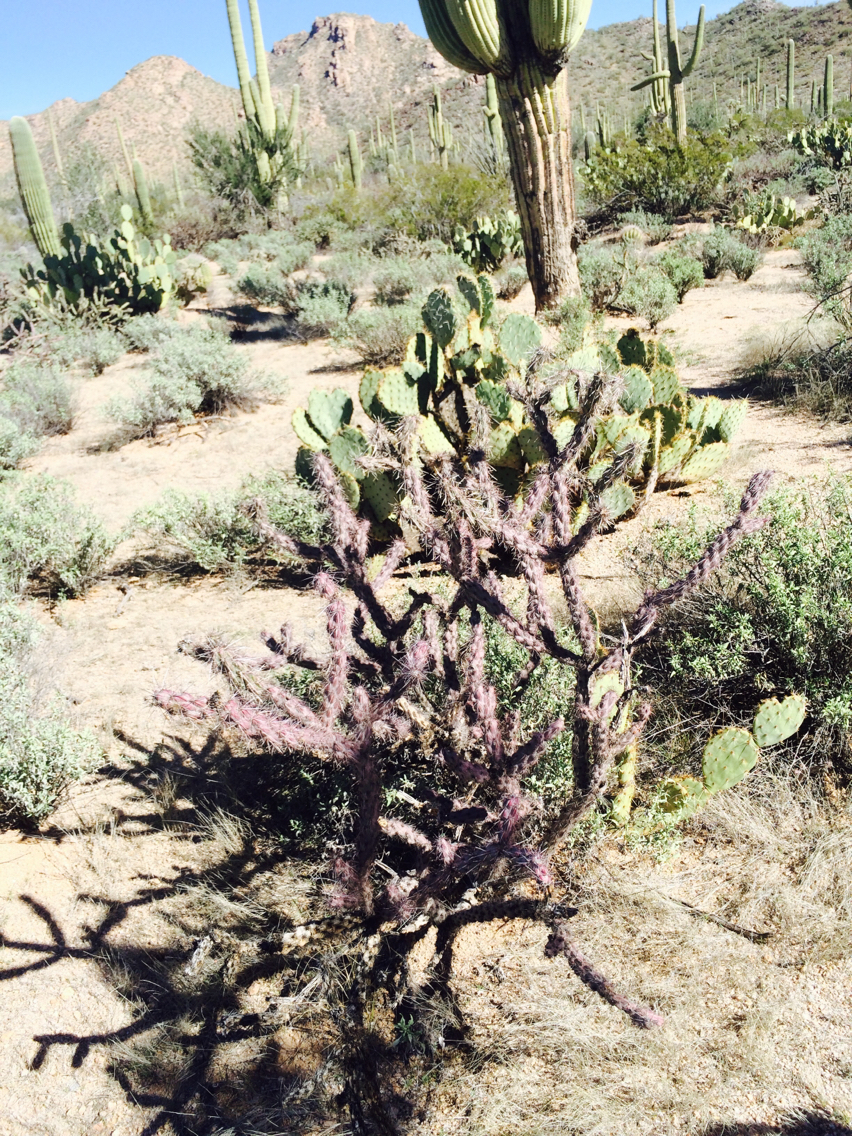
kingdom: Plantae
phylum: Tracheophyta
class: Magnoliopsida
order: Caryophyllales
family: Cactaceae
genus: Cylindropuntia
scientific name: Cylindropuntia thurberi
